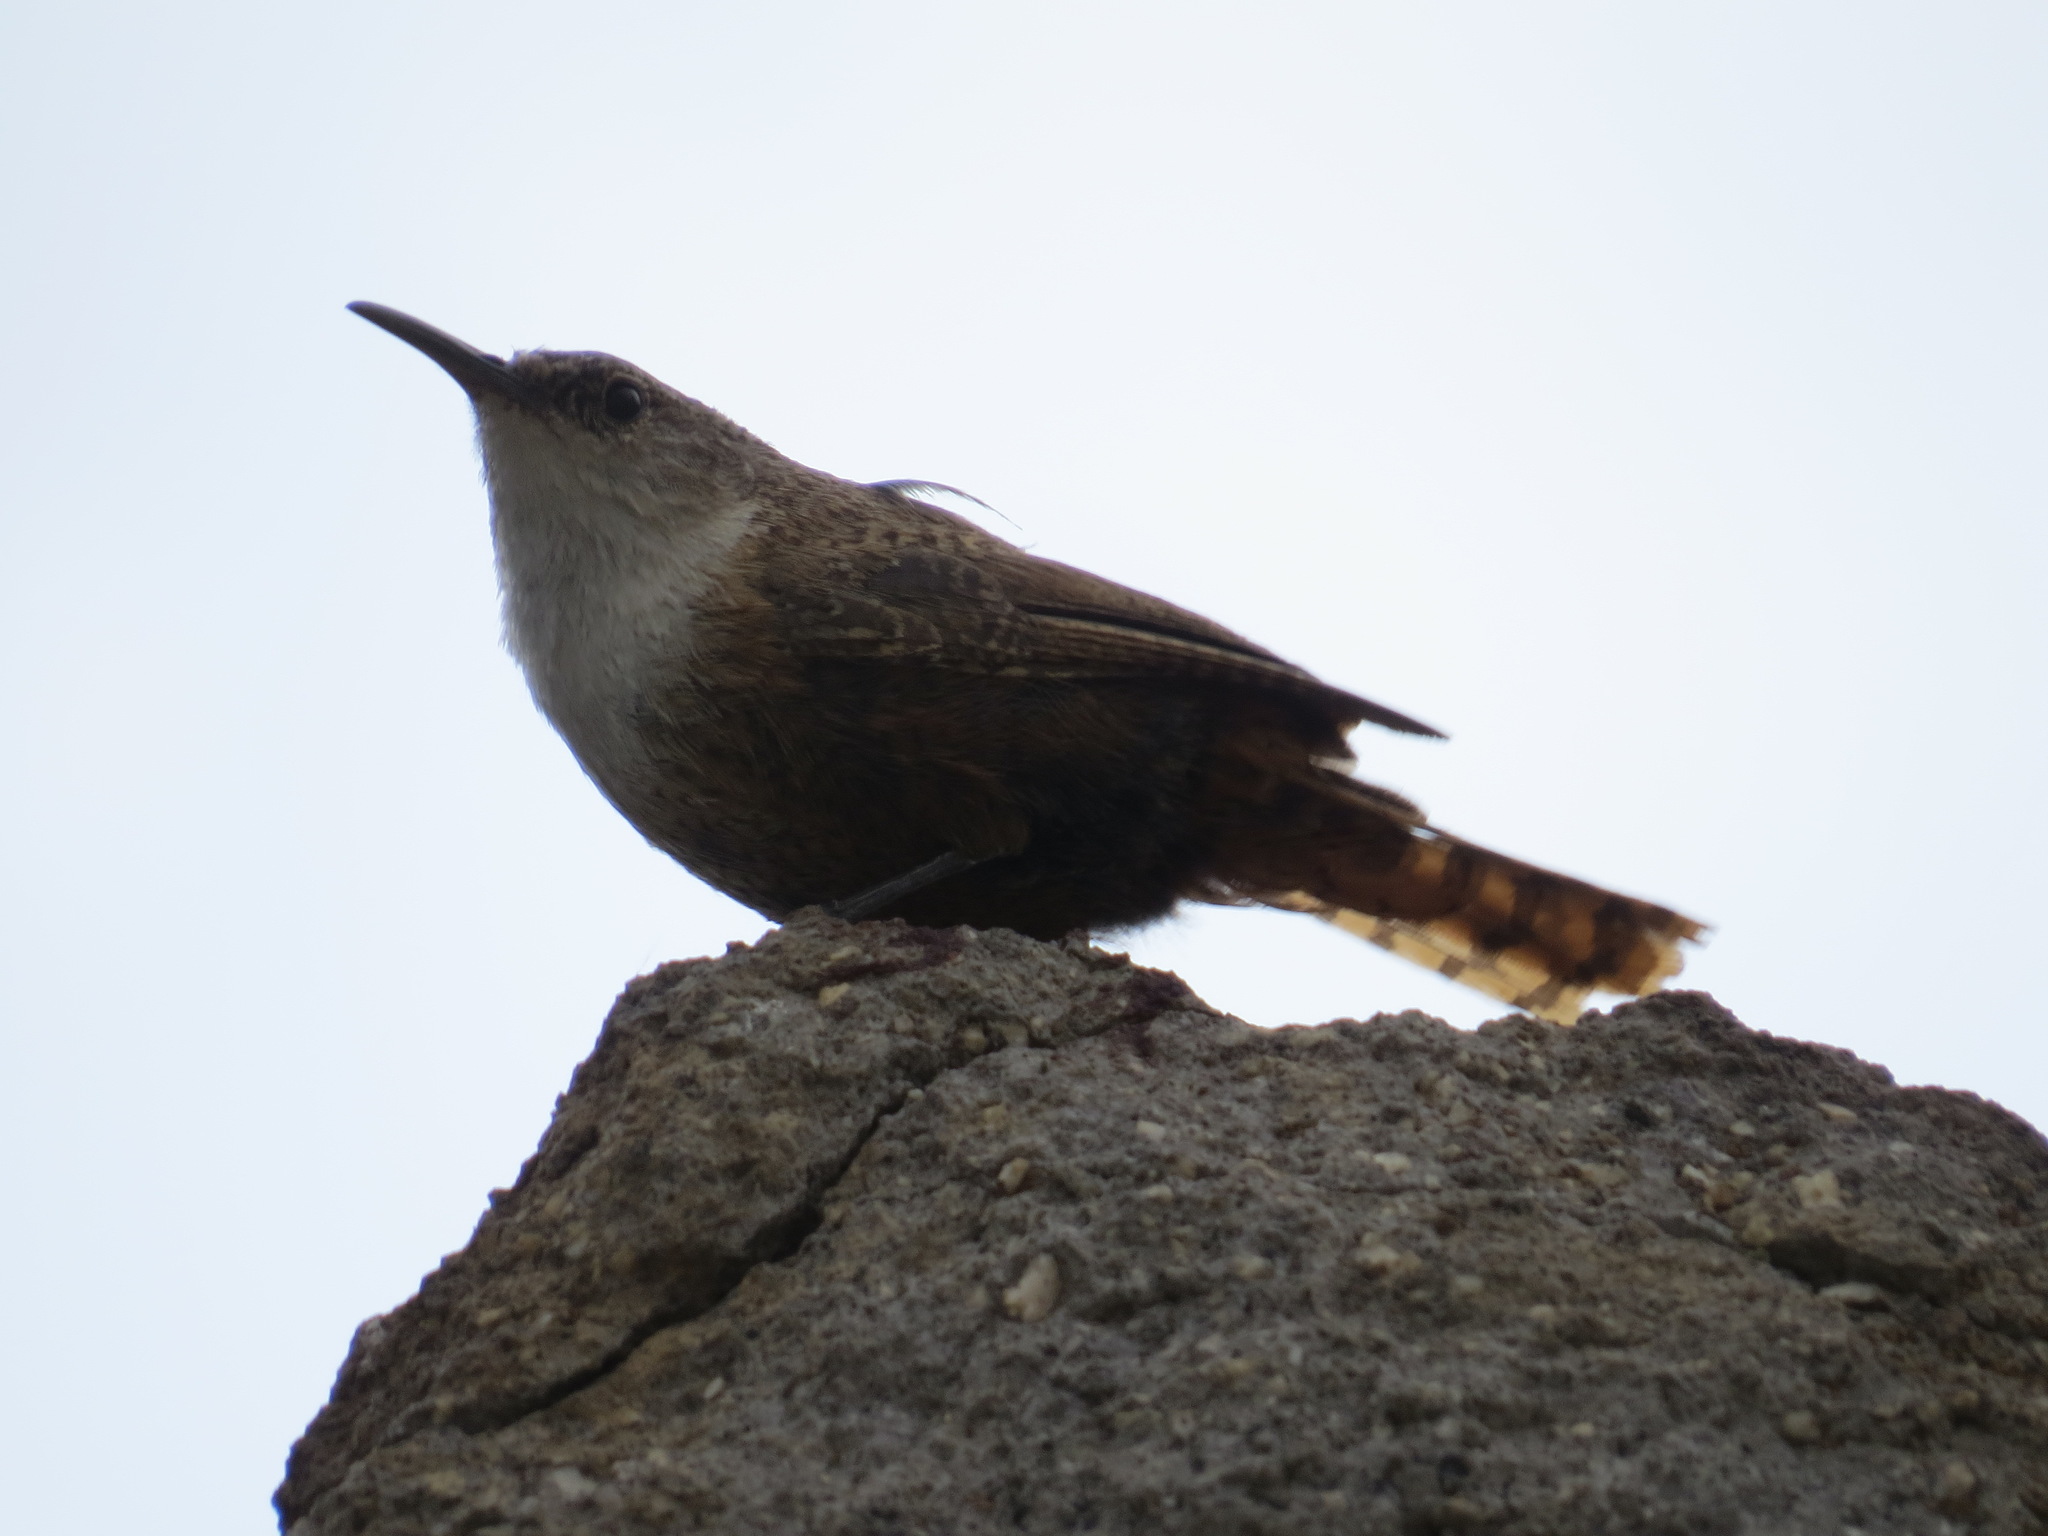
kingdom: Animalia
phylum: Chordata
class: Aves
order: Passeriformes
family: Troglodytidae
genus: Catherpes
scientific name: Catherpes mexicanus
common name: Canyon wren
